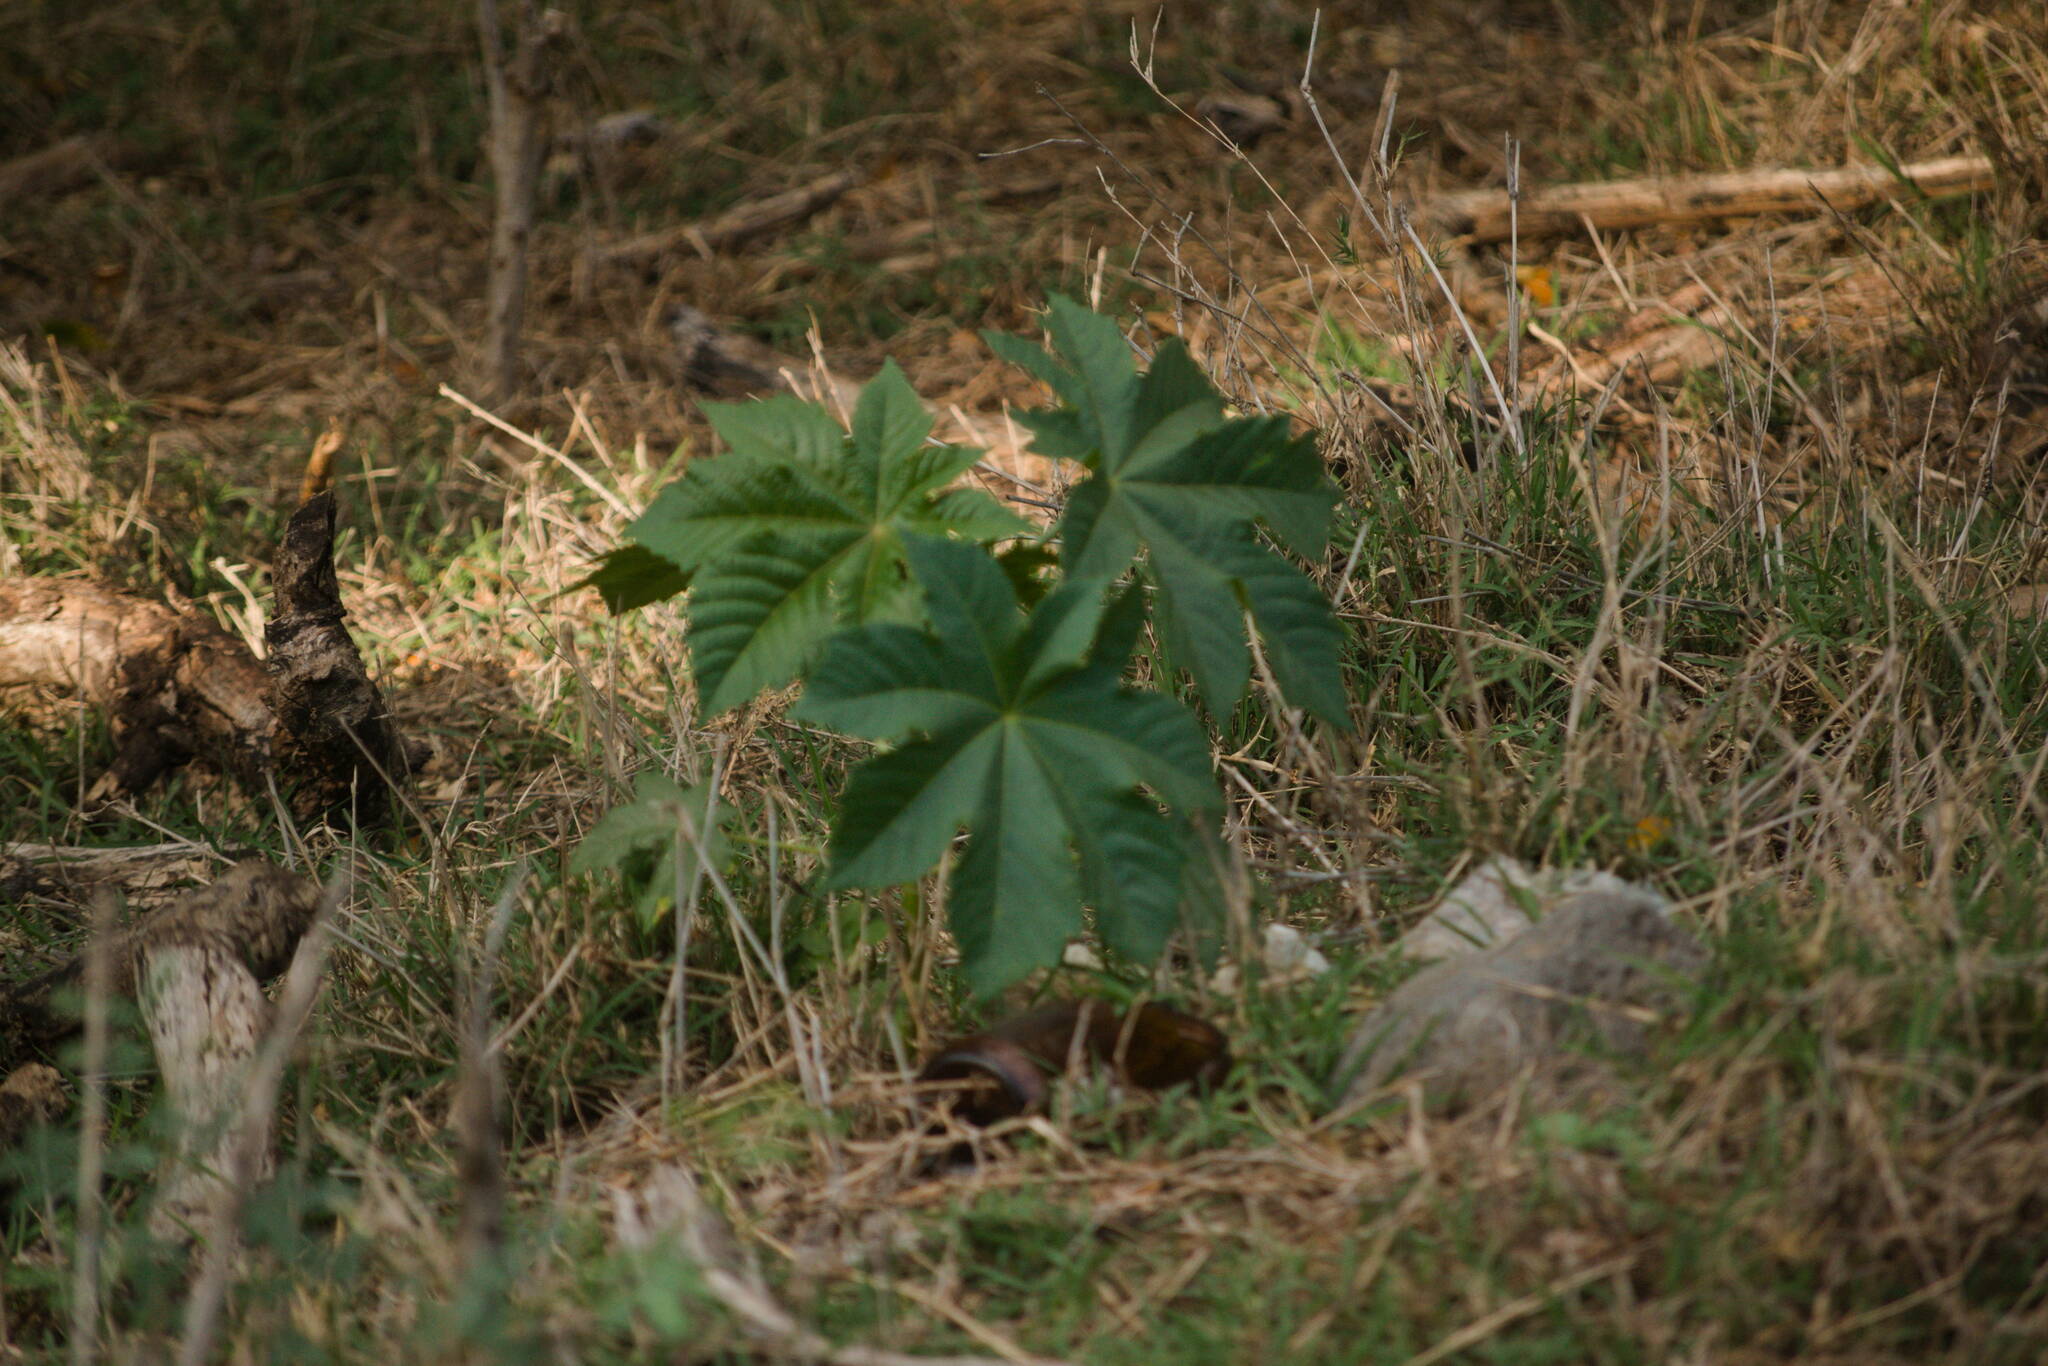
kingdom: Plantae
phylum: Tracheophyta
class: Magnoliopsida
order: Malpighiales
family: Euphorbiaceae
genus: Ricinus
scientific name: Ricinus communis
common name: Castor-oil-plant
